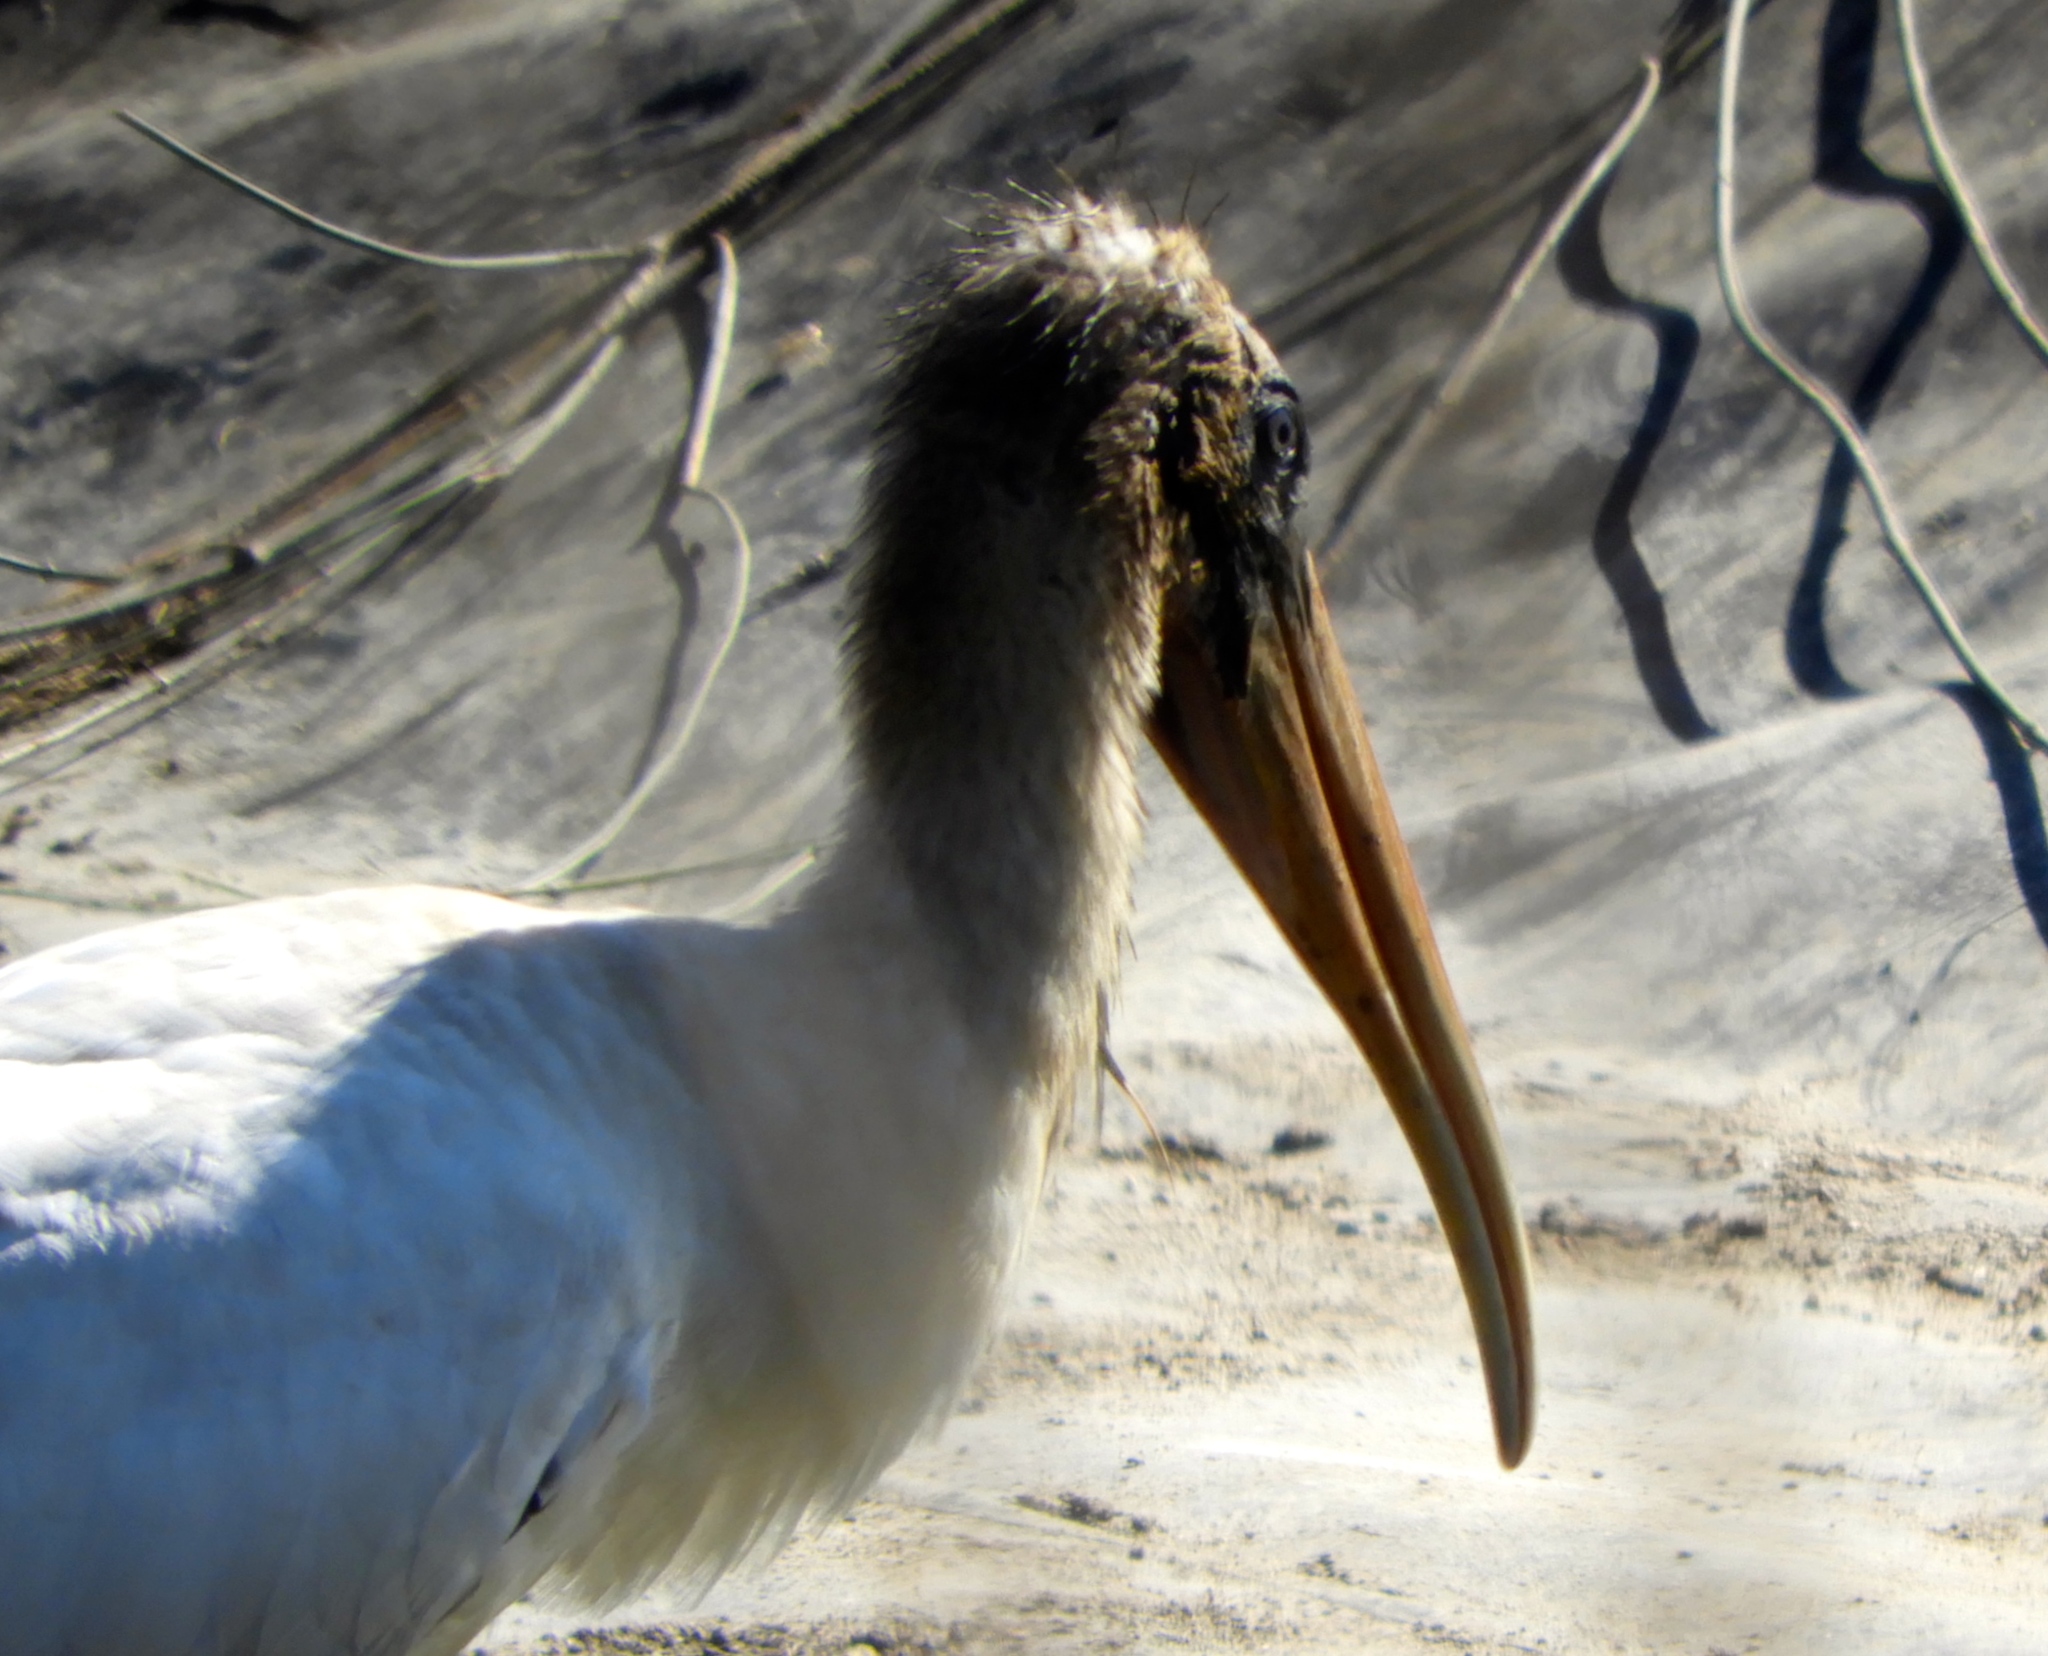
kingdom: Animalia
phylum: Chordata
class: Aves
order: Ciconiiformes
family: Ciconiidae
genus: Mycteria
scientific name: Mycteria americana
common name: Wood stork
